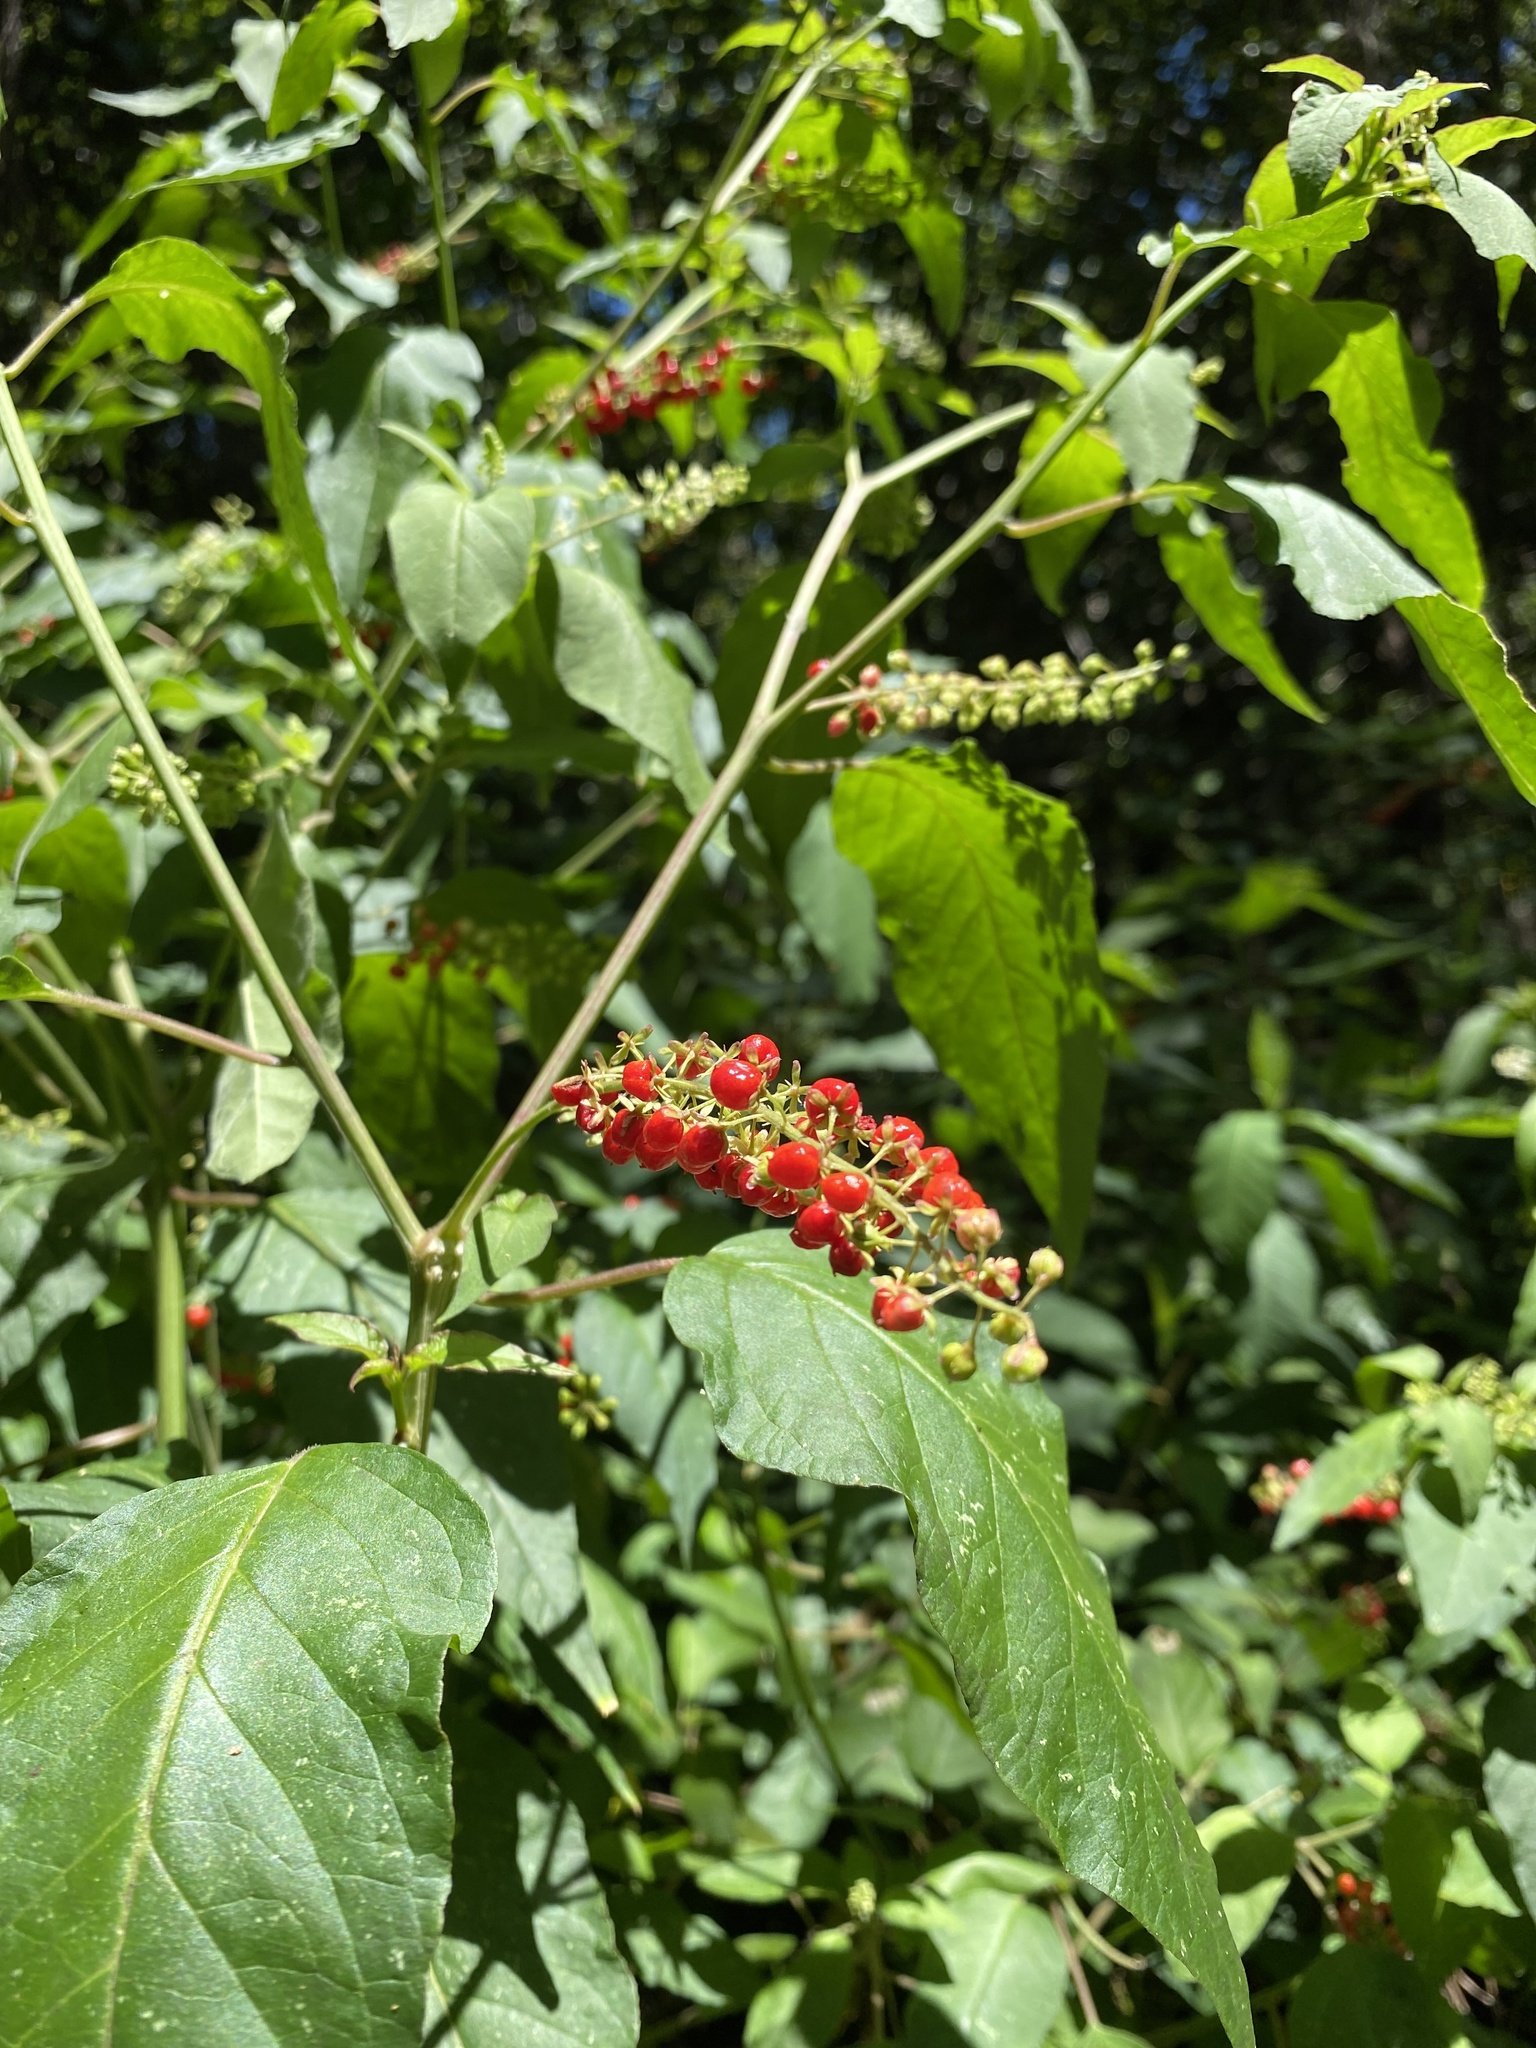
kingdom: Plantae
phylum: Tracheophyta
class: Magnoliopsida
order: Caryophyllales
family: Phytolaccaceae
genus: Rivina
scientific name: Rivina humilis
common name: Rougeplant
